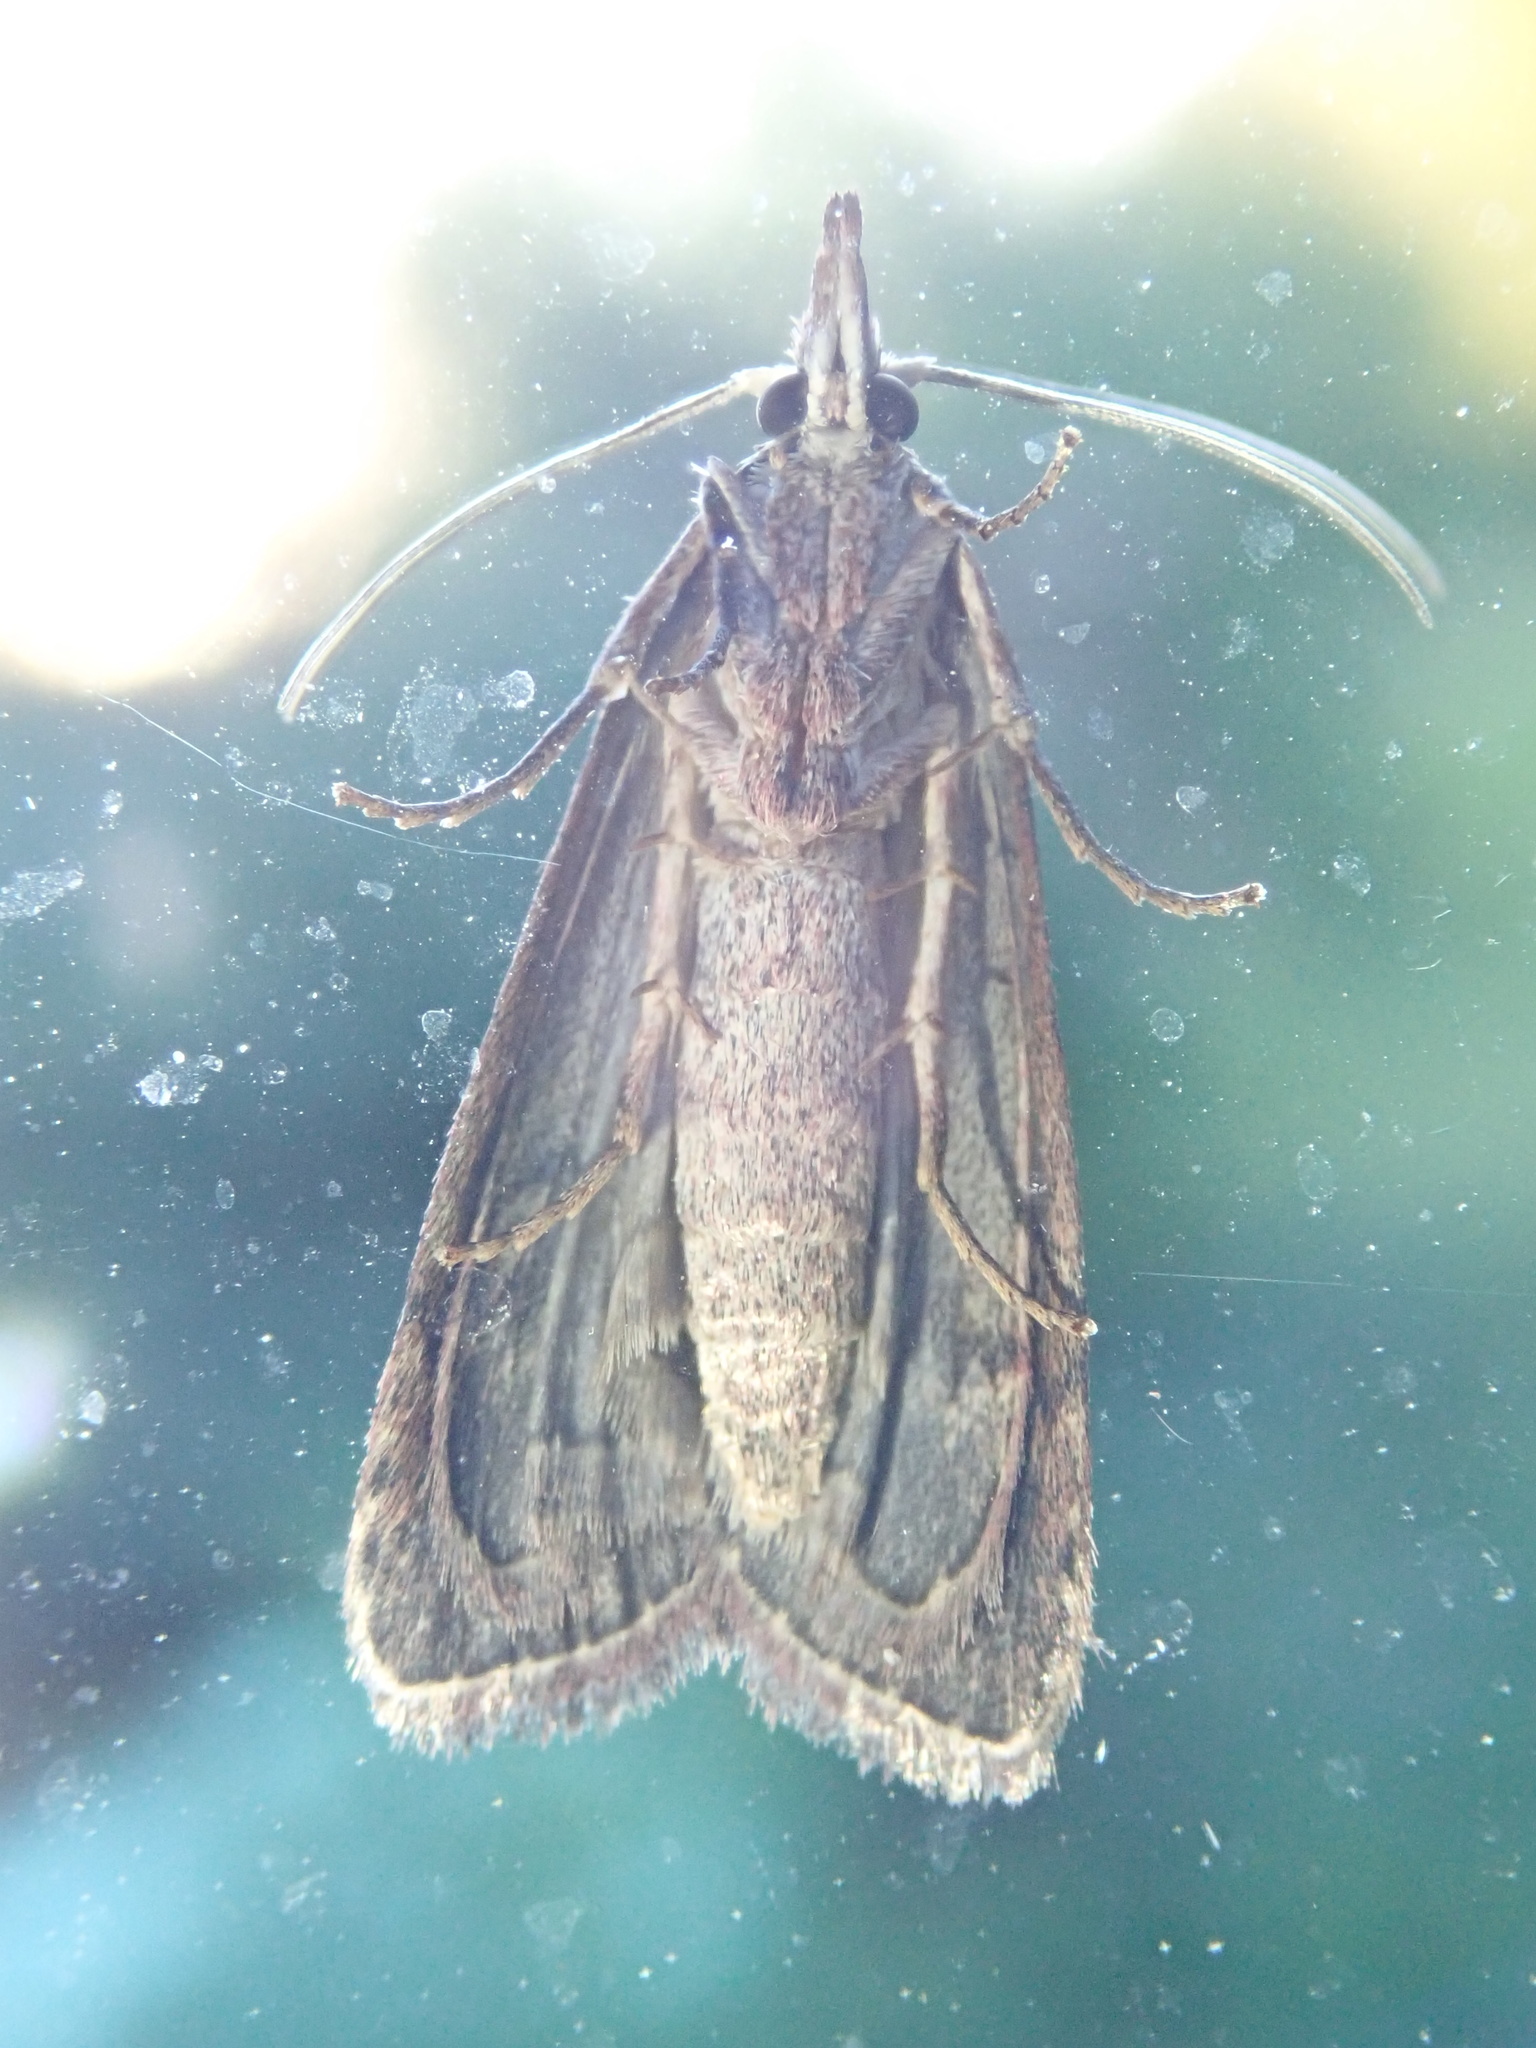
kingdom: Animalia
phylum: Arthropoda
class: Insecta
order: Lepidoptera
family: Pyralidae
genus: Aphomia
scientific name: Aphomia sociella
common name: Bee moth
